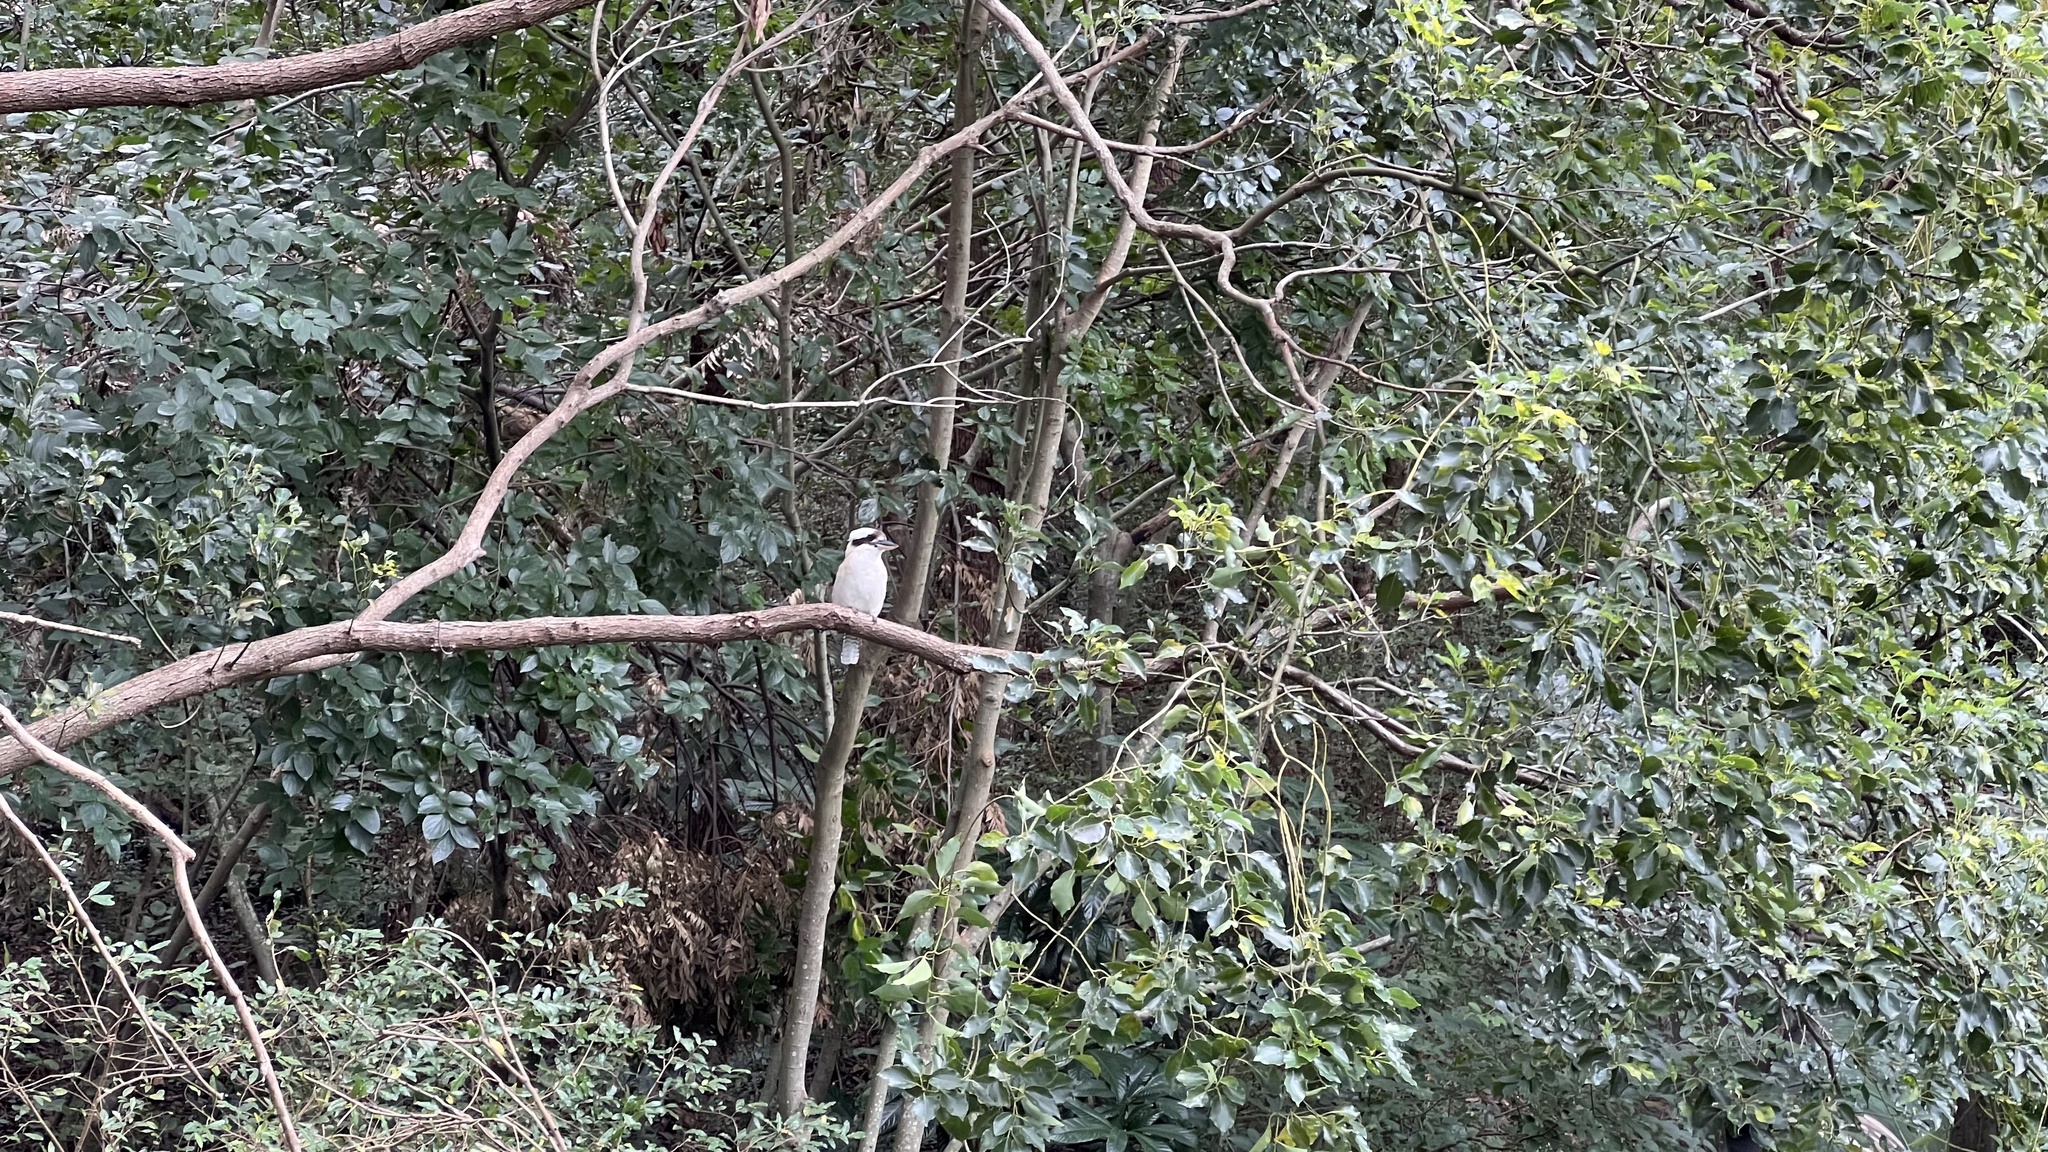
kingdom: Animalia
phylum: Chordata
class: Aves
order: Coraciiformes
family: Alcedinidae
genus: Dacelo
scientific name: Dacelo novaeguineae
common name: Laughing kookaburra
